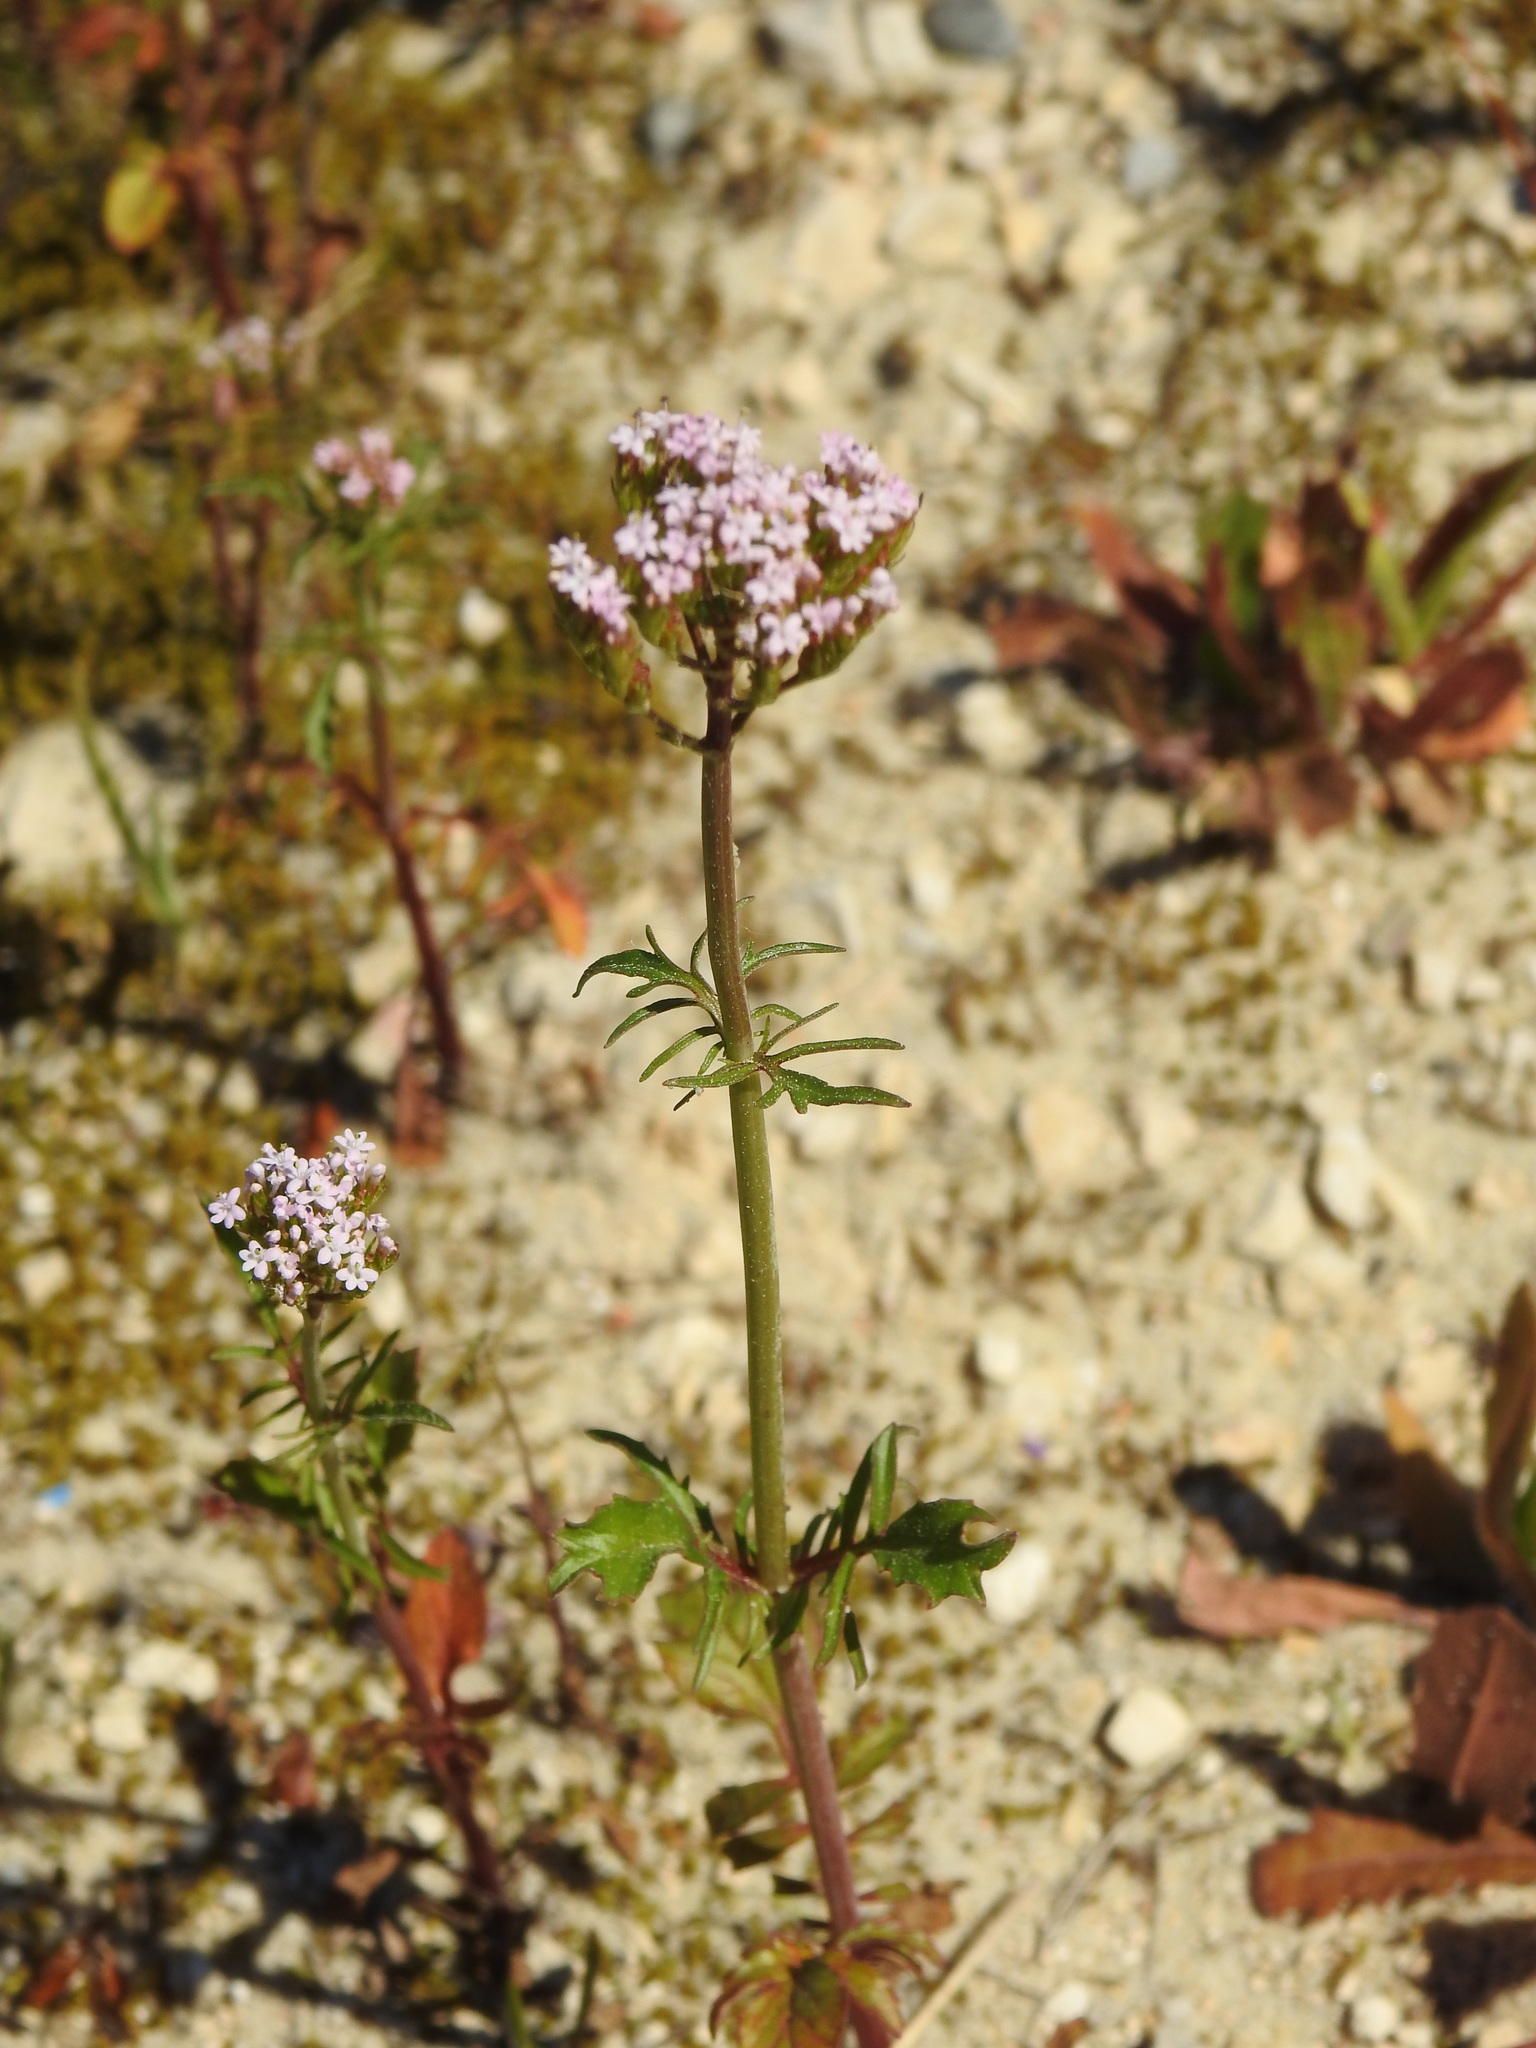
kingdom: Plantae
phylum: Tracheophyta
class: Magnoliopsida
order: Dipsacales
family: Caprifoliaceae
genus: Centranthus
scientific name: Centranthus calcitrapae
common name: Annual valerian
